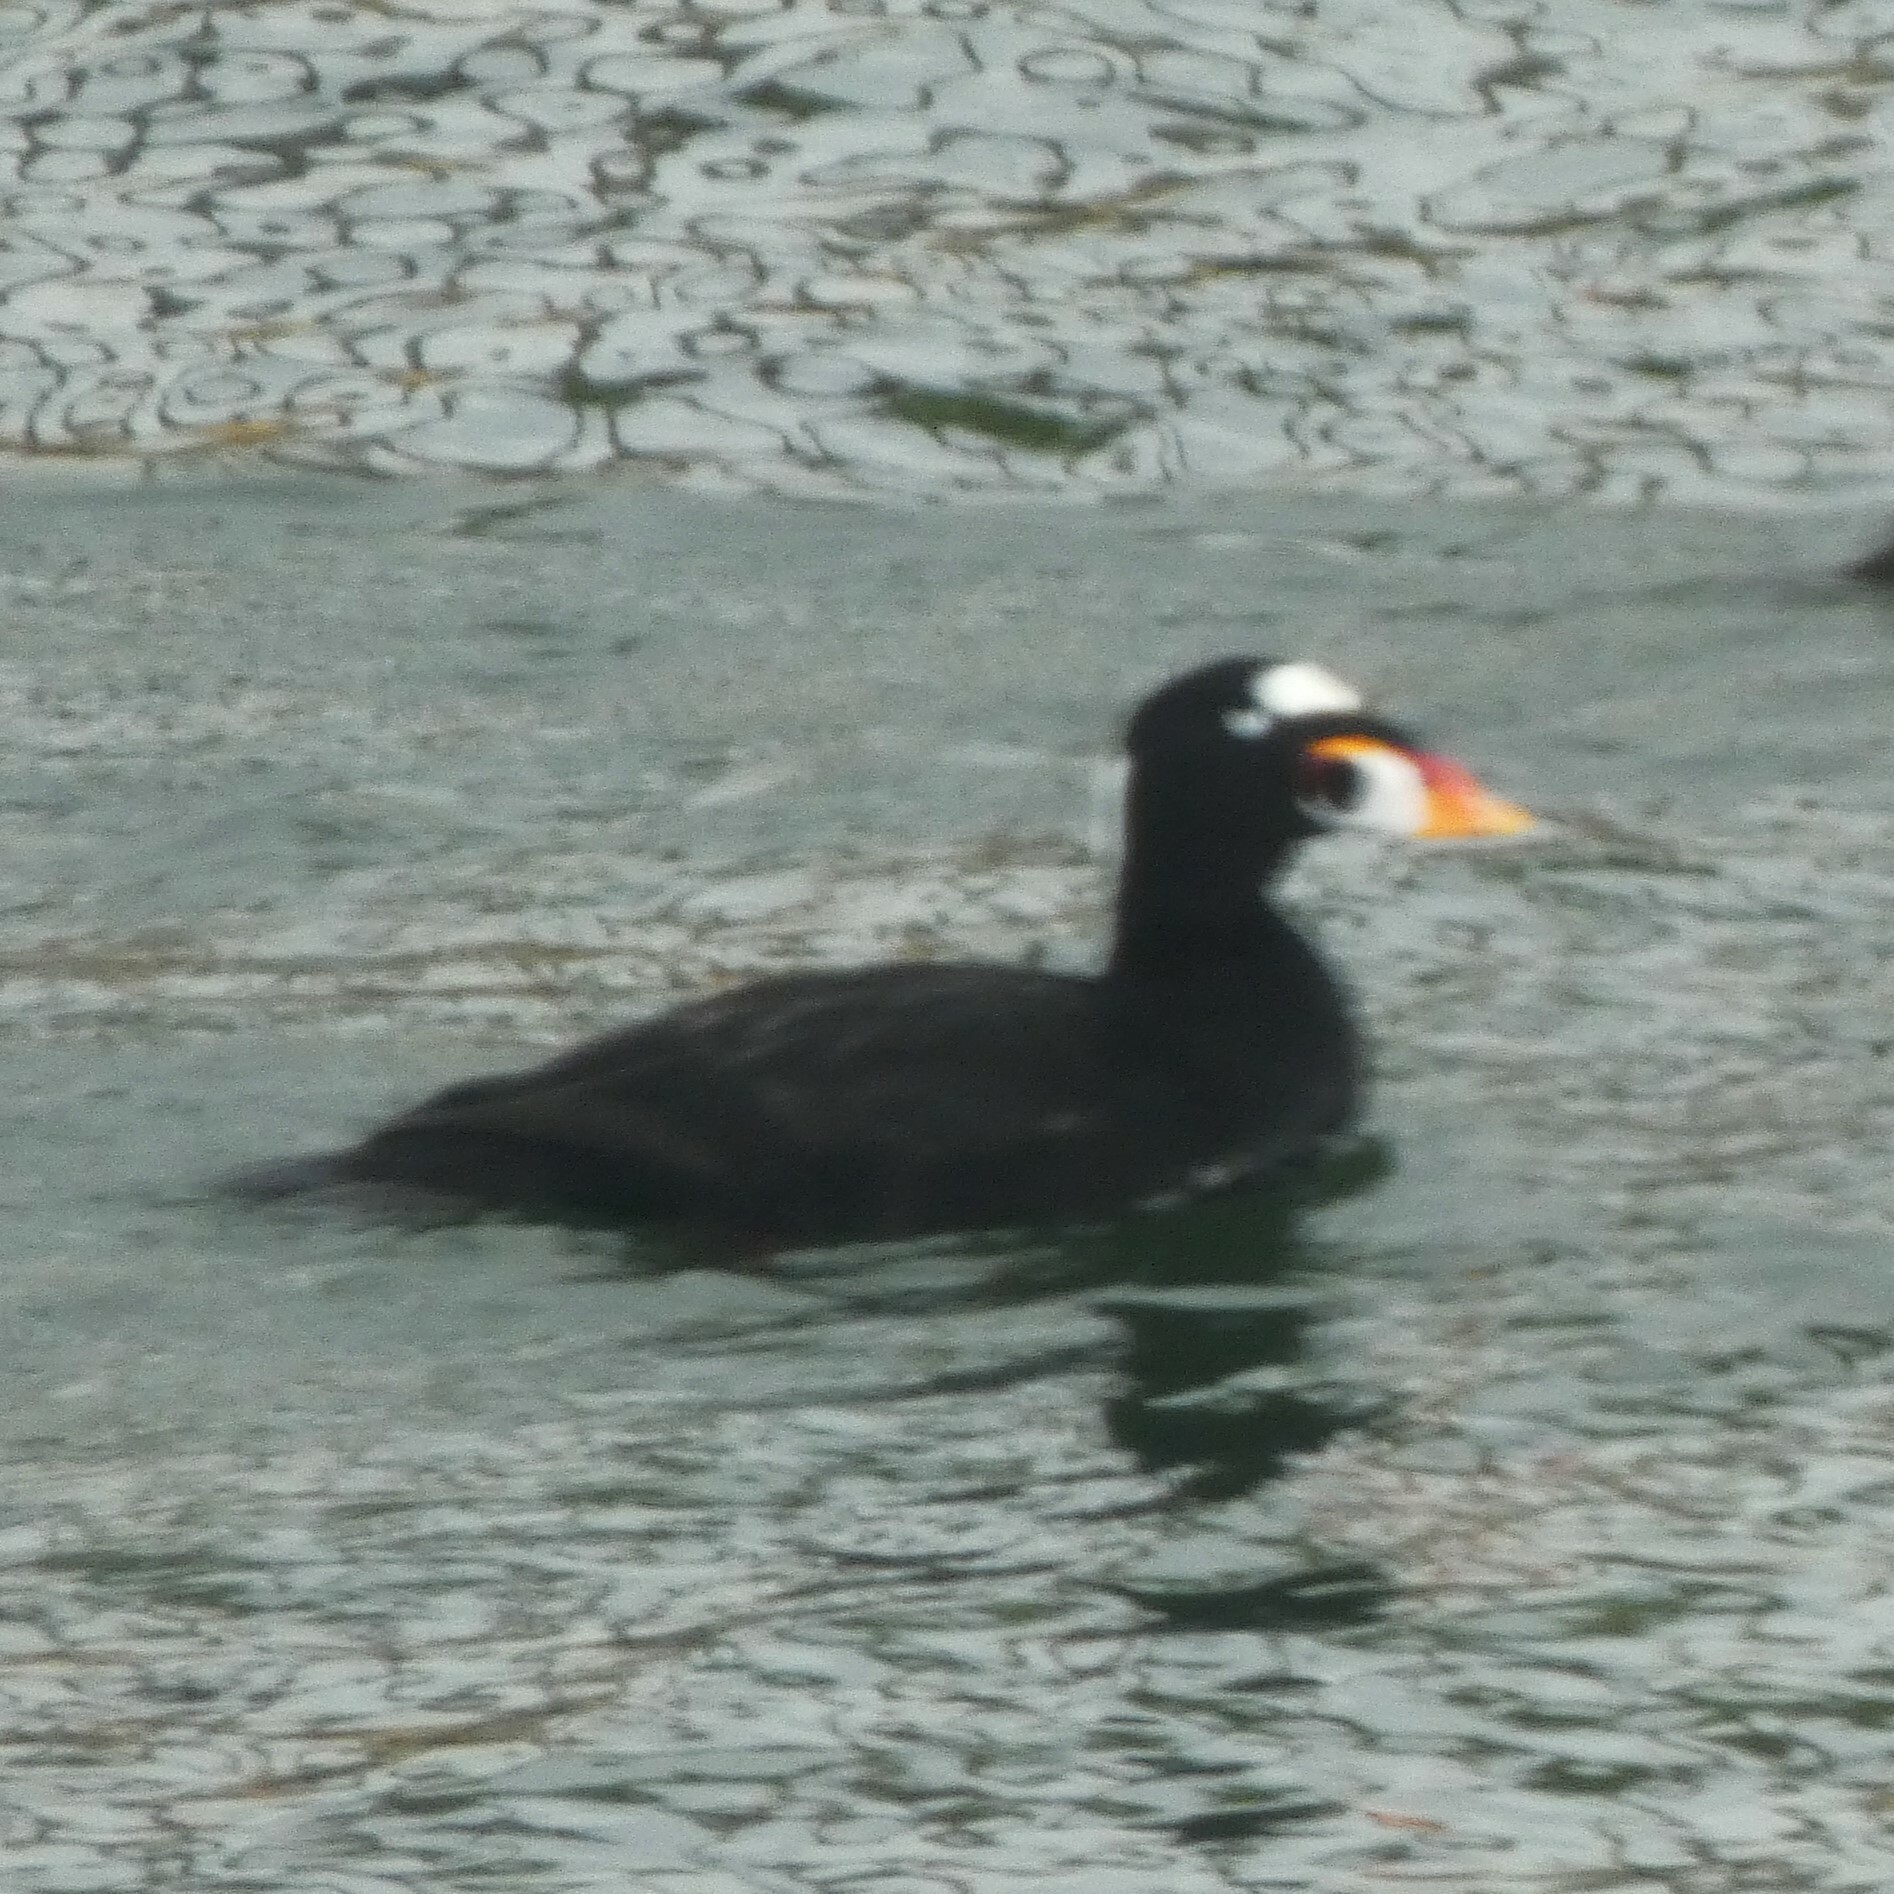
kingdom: Animalia
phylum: Chordata
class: Aves
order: Anseriformes
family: Anatidae
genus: Melanitta
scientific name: Melanitta perspicillata
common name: Surf scoter
